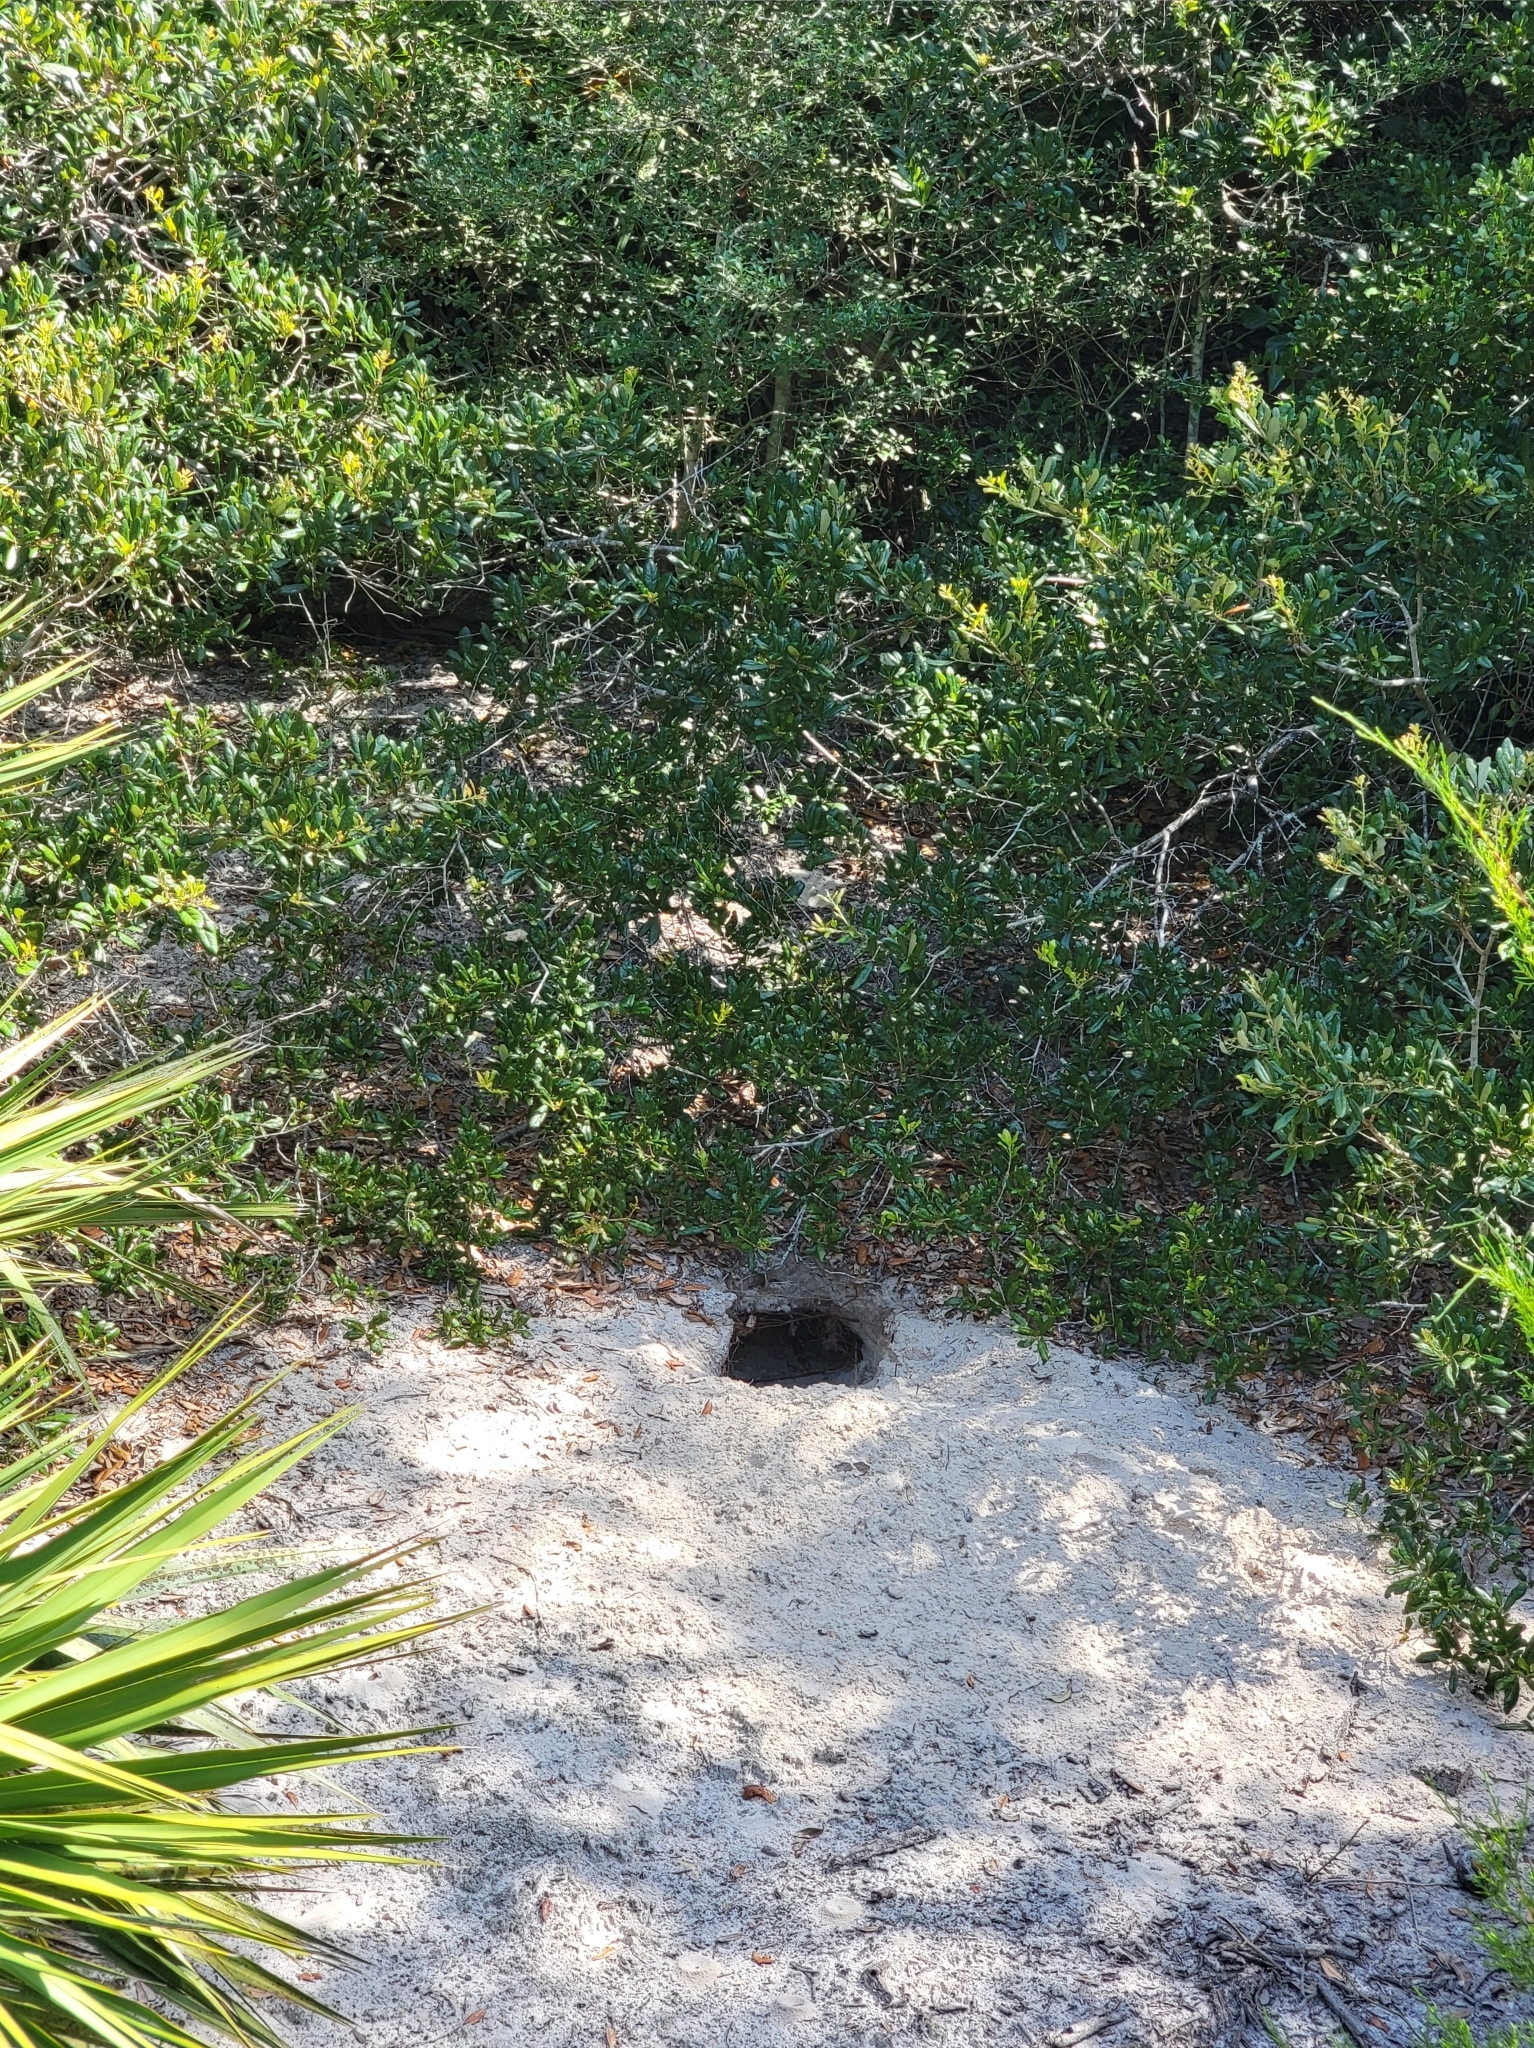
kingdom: Animalia
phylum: Chordata
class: Testudines
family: Testudinidae
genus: Gopherus
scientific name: Gopherus polyphemus
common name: Florida gopher tortoise
